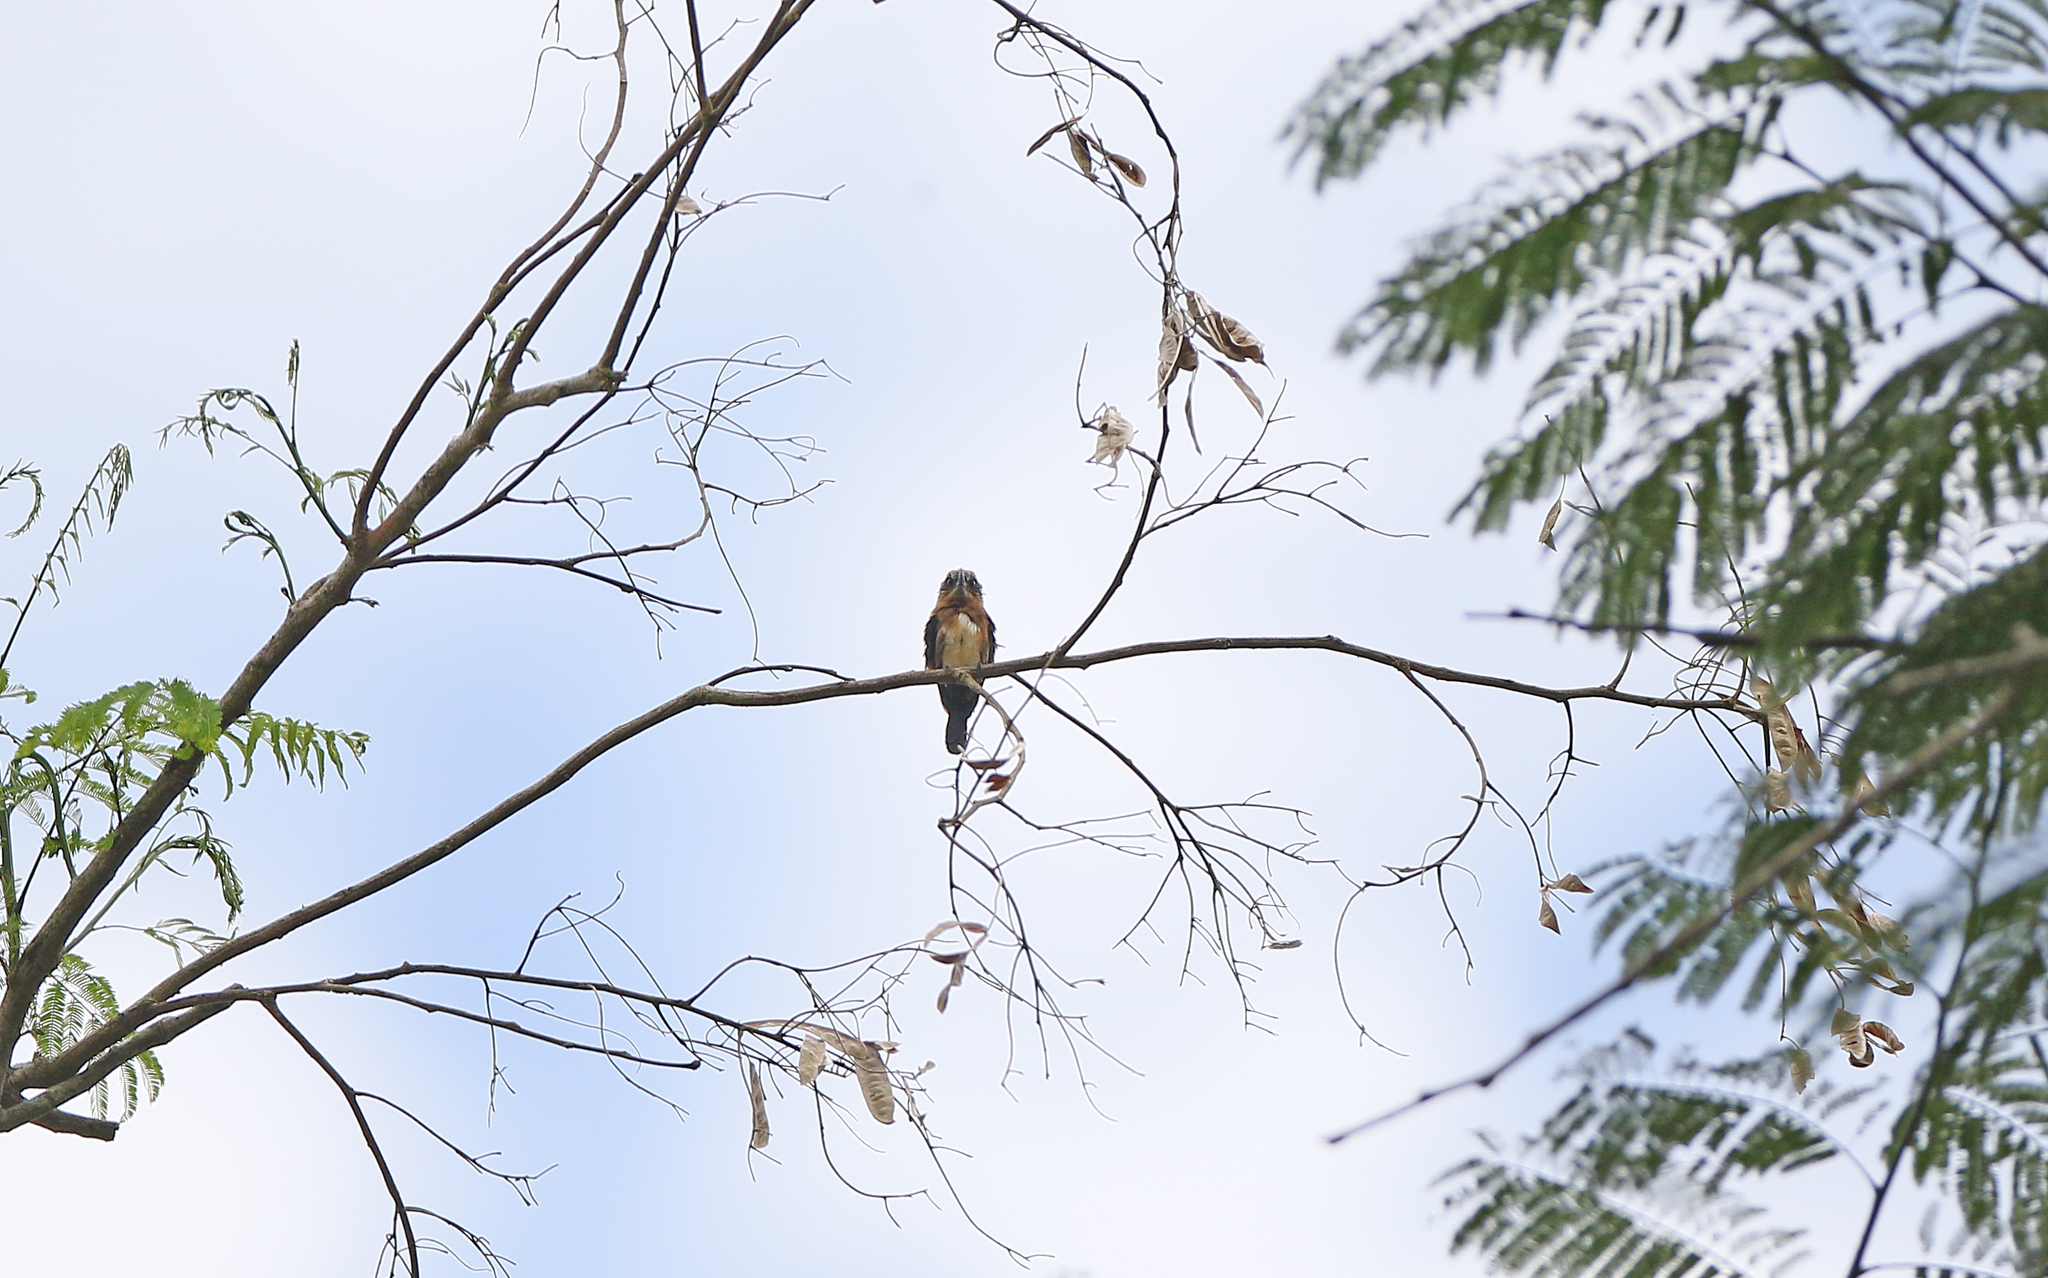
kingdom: Animalia
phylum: Chordata
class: Aves
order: Piciformes
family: Galbulidae
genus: Brachygalba
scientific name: Brachygalba lugubris
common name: Brown jacamar
